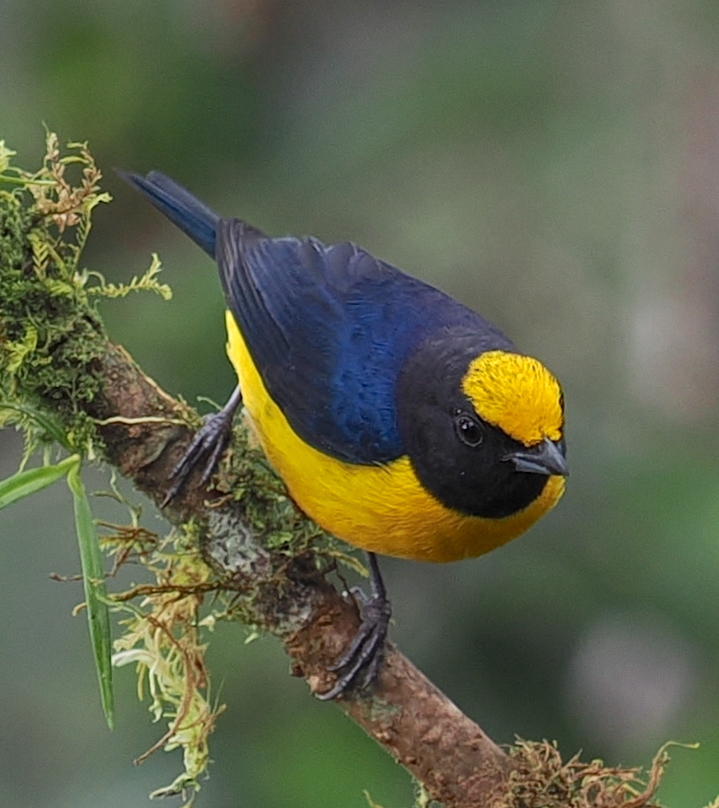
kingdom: Animalia
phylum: Chordata
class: Aves
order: Passeriformes
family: Fringillidae
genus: Euphonia
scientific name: Euphonia xanthogaster
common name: Orange-bellied euphonia
